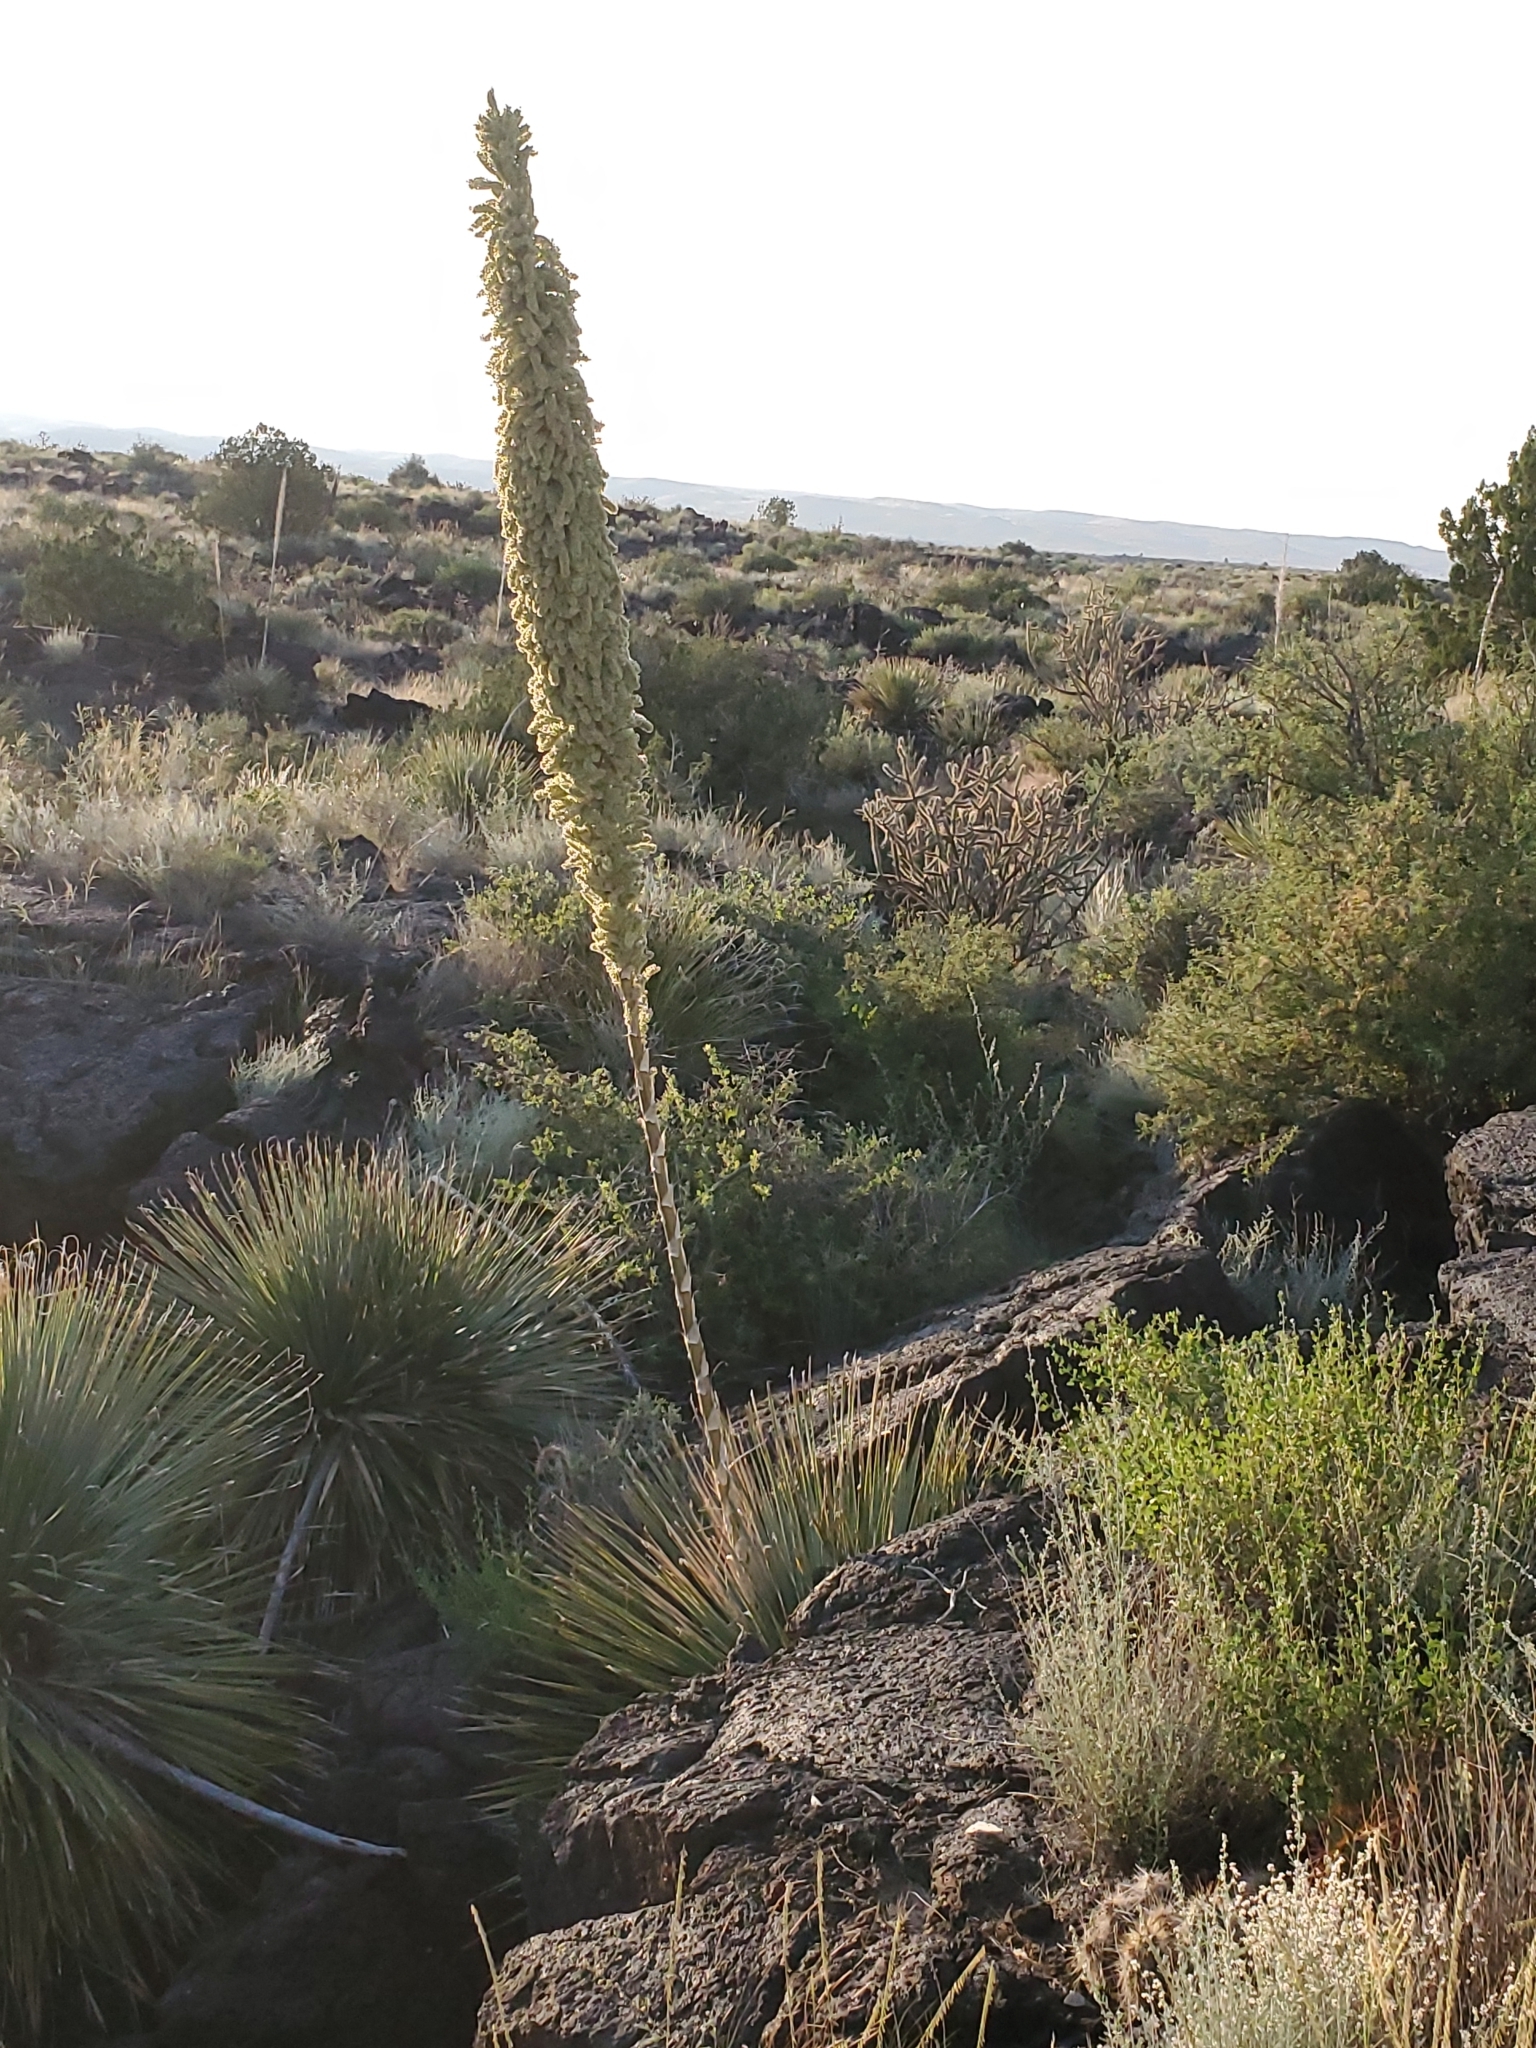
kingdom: Plantae
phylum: Tracheophyta
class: Liliopsida
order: Asparagales
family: Asparagaceae
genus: Dasylirion
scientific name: Dasylirion wheeleri
